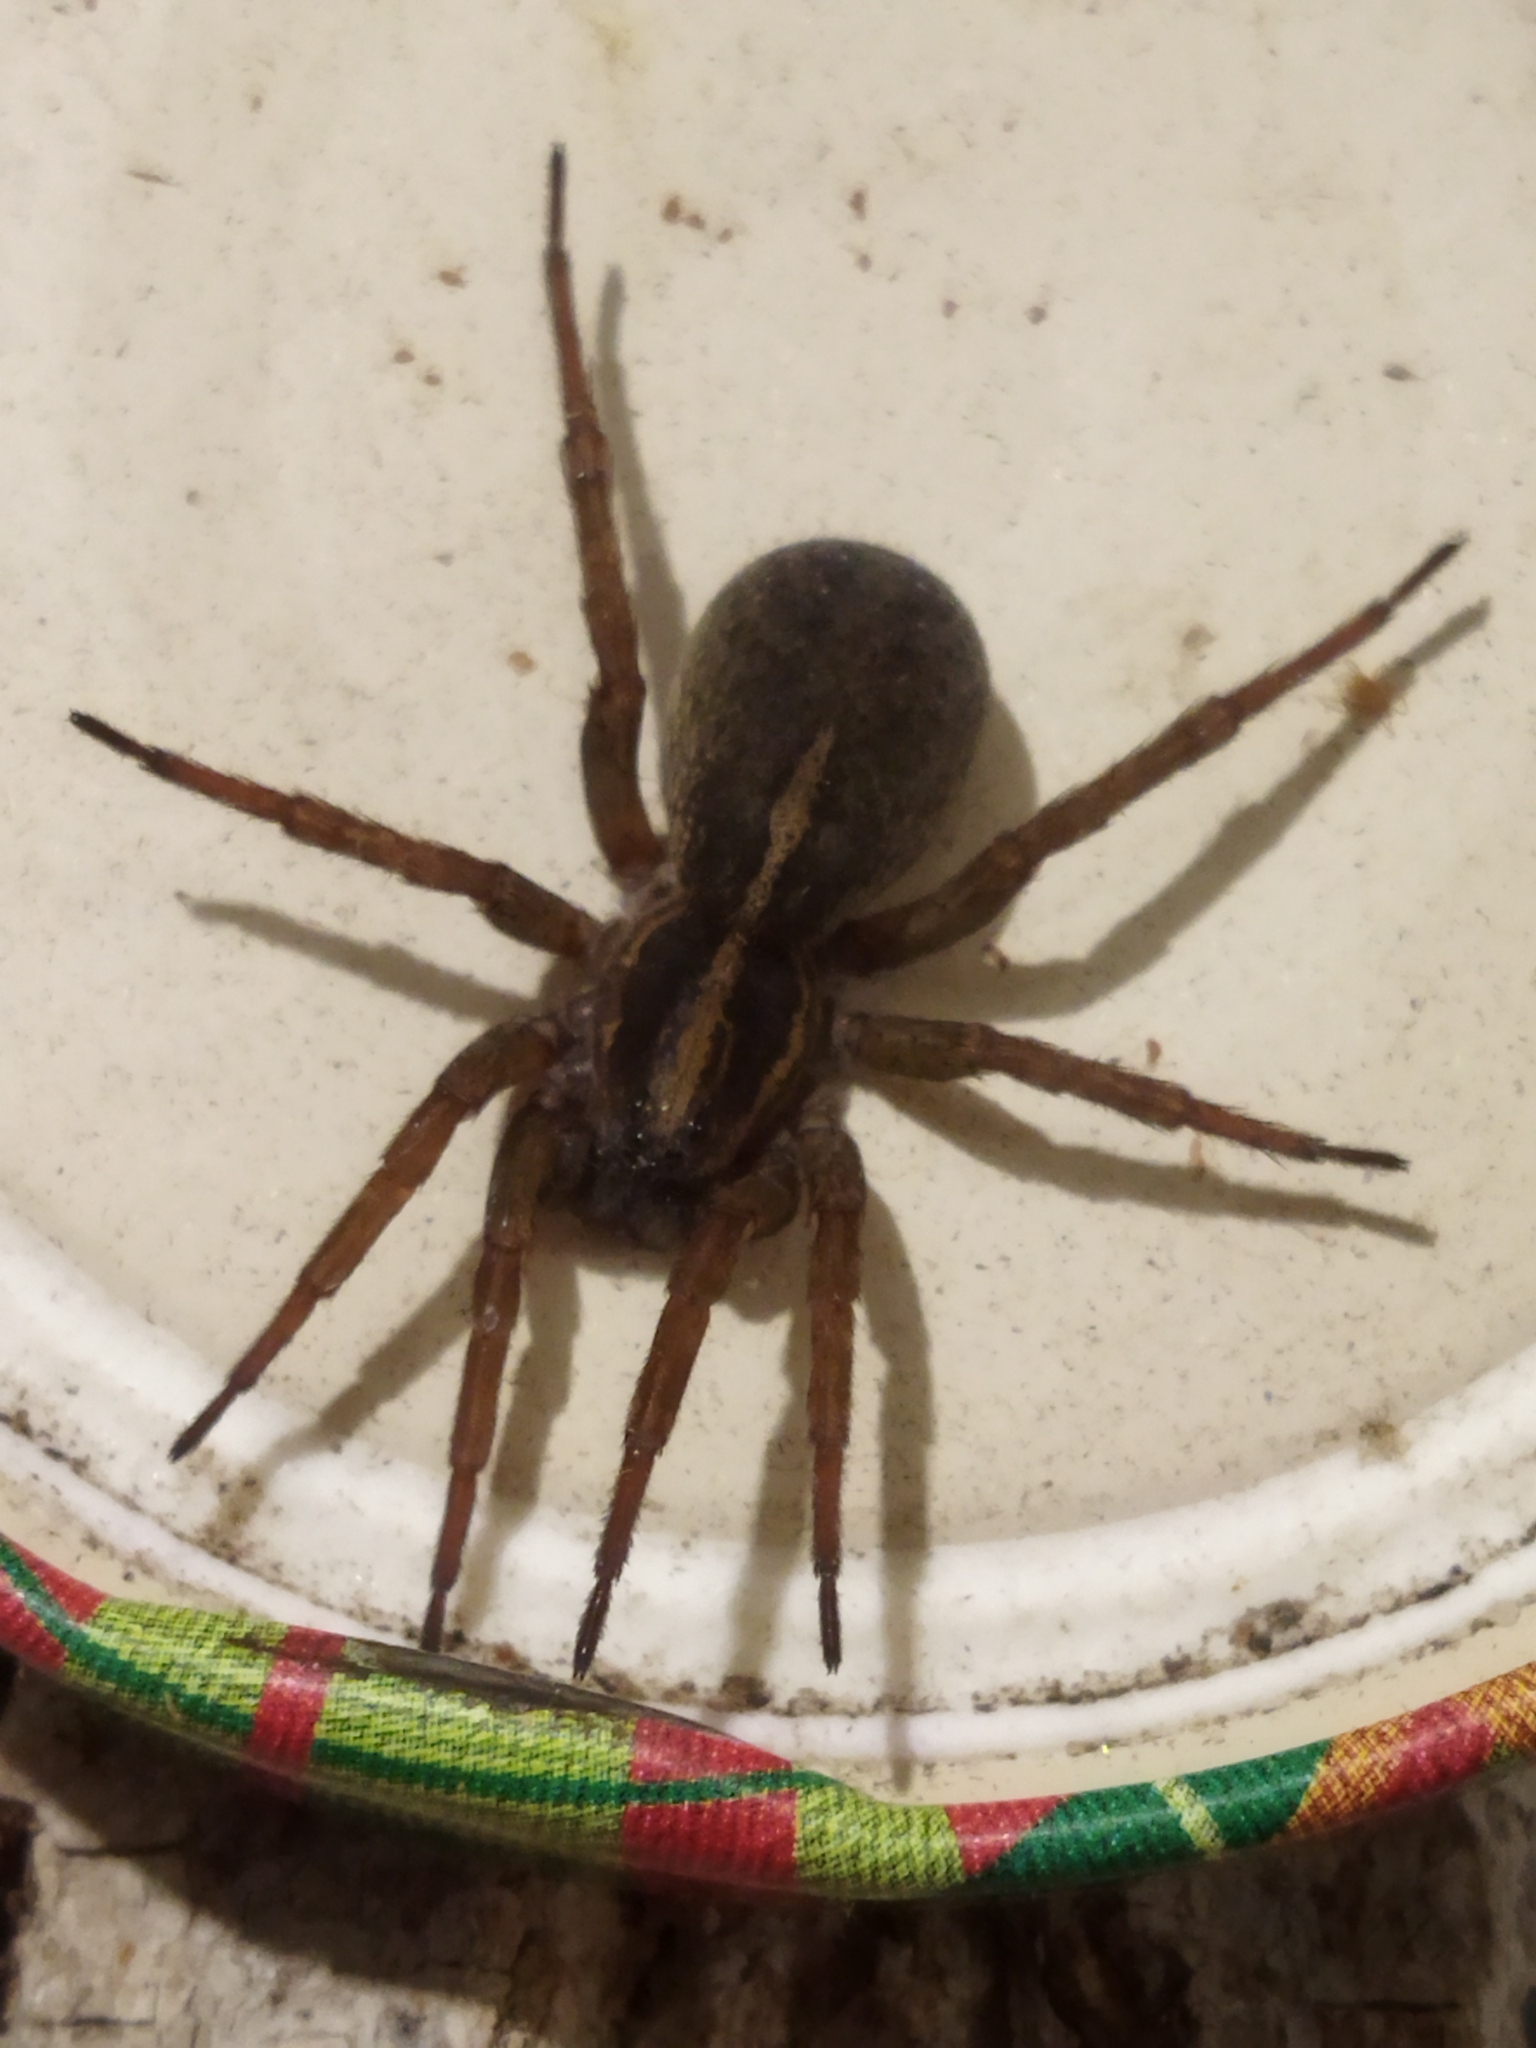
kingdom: Animalia
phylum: Arthropoda
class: Arachnida
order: Araneae
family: Lycosidae
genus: Trochosa
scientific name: Trochosa ruricola
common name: Spider
